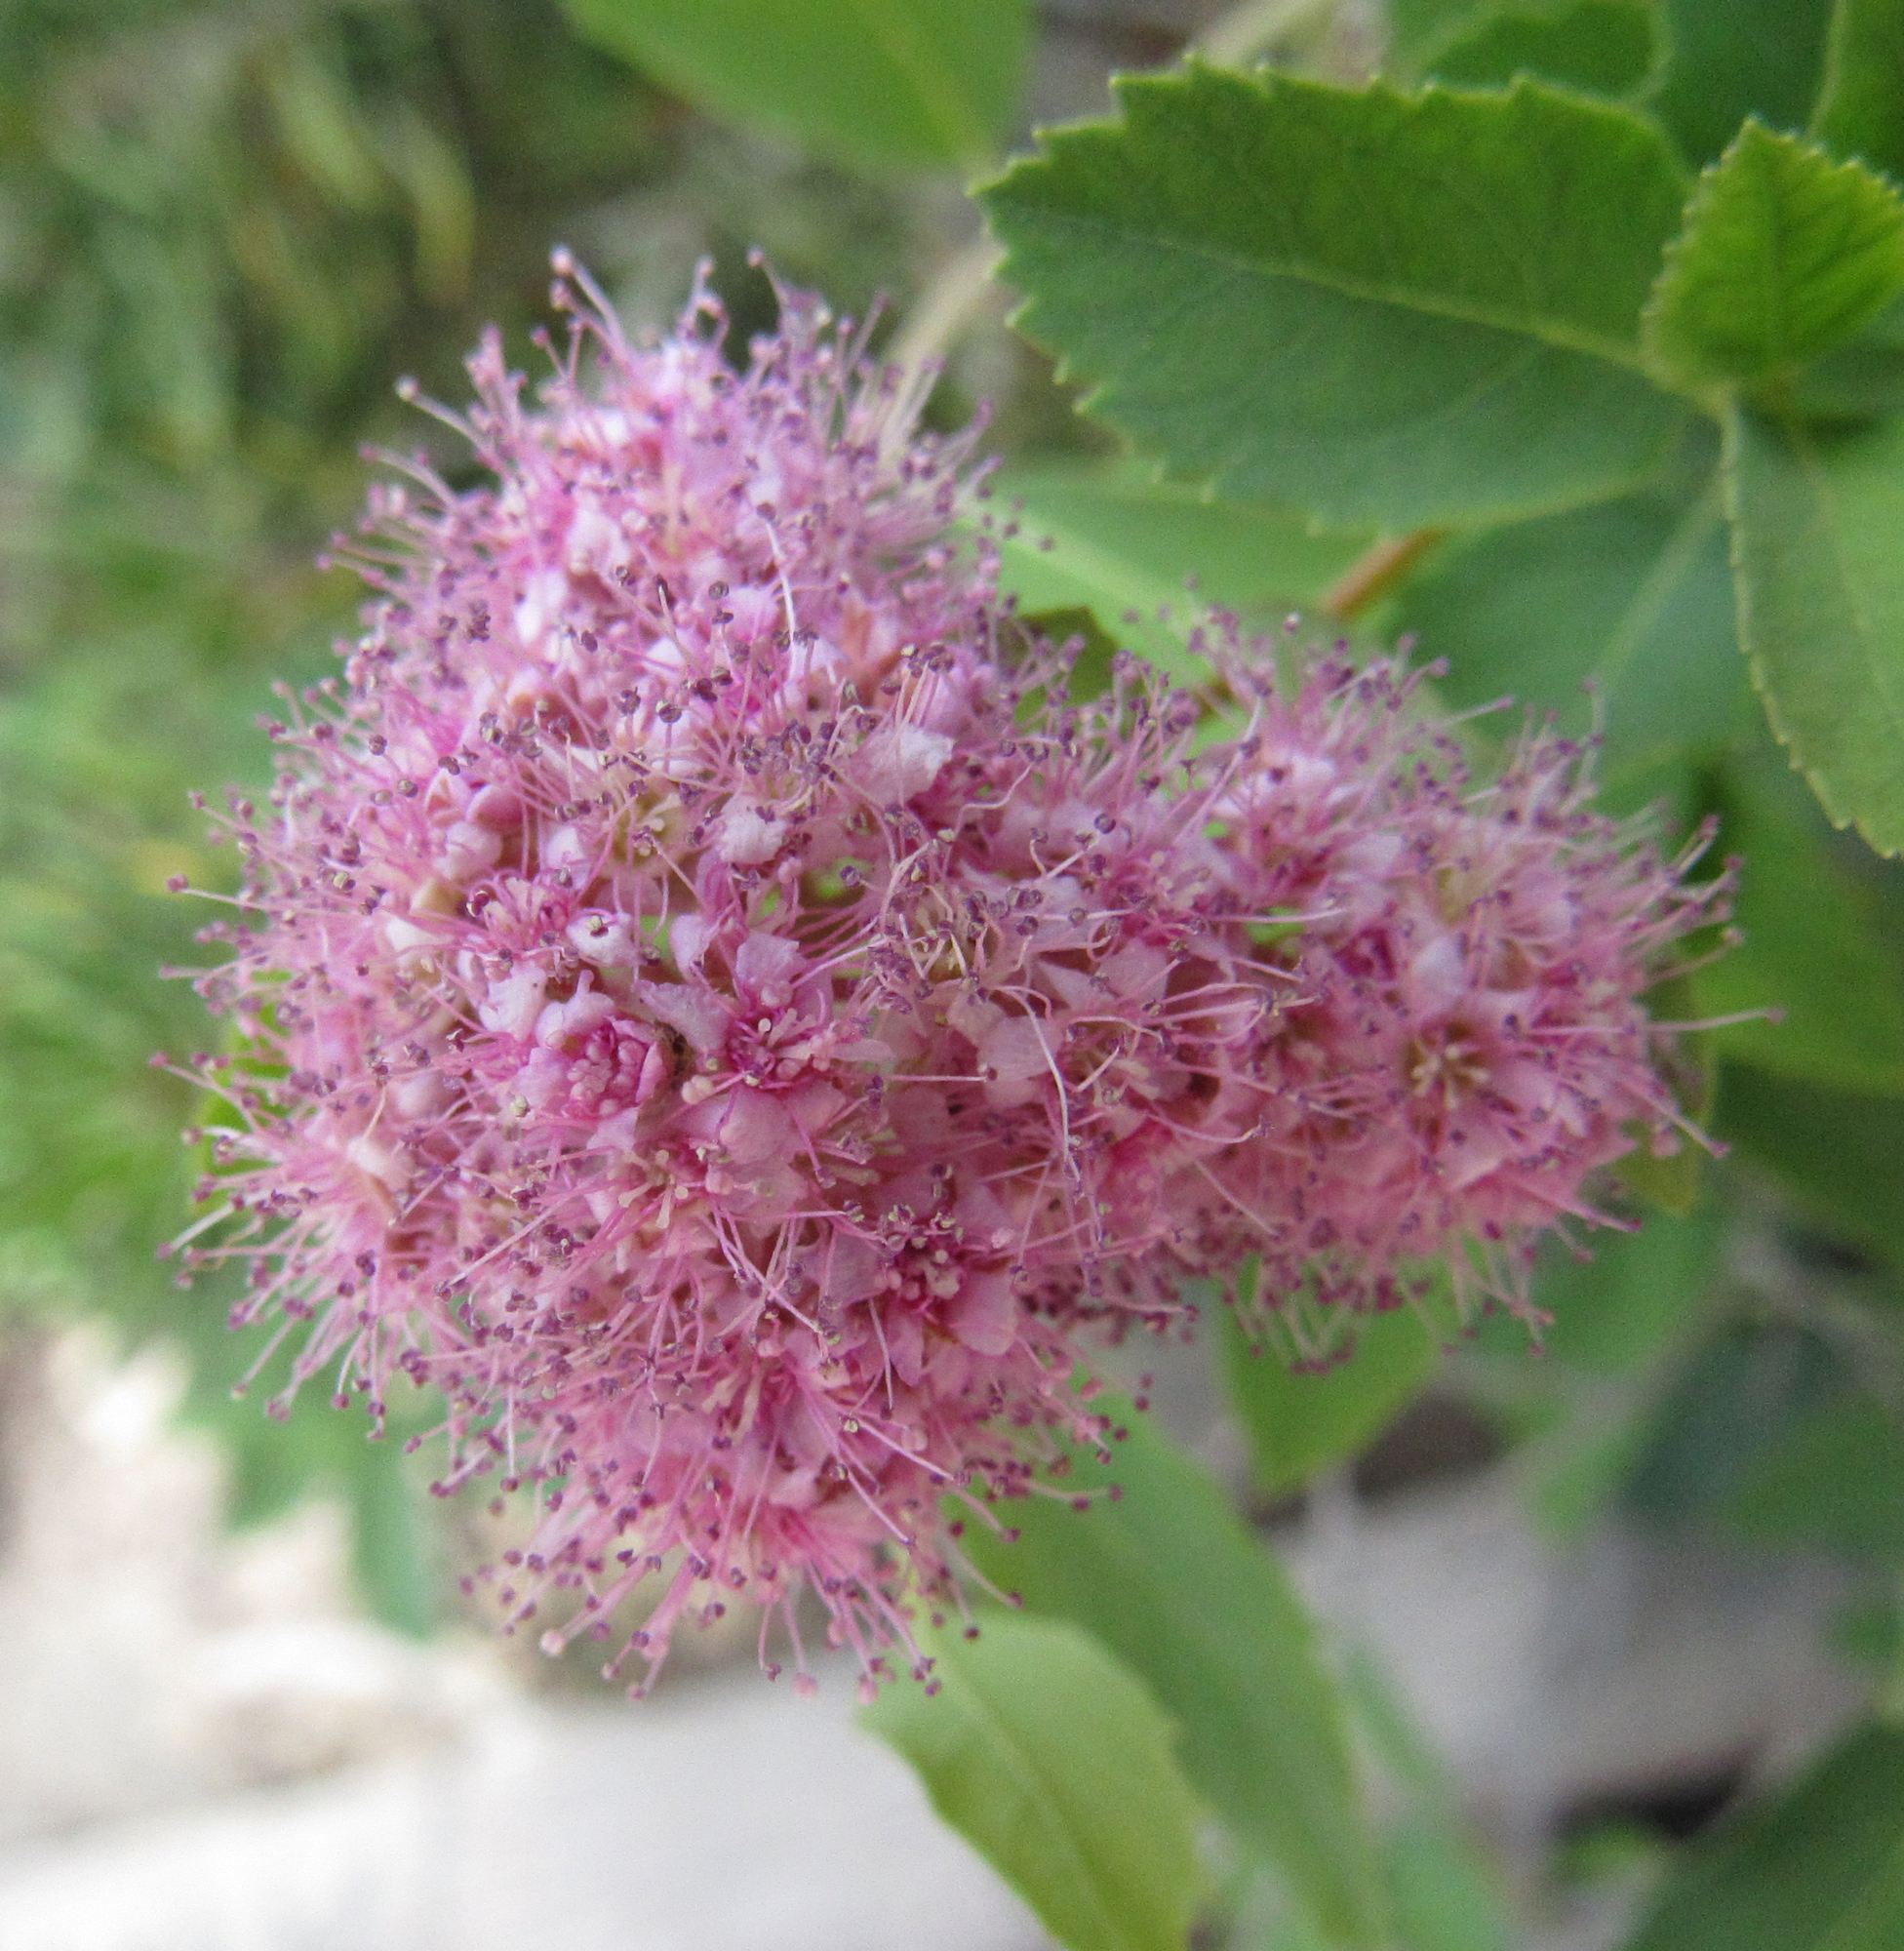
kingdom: Plantae
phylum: Tracheophyta
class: Magnoliopsida
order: Rosales
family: Rosaceae
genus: Spiraea
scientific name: Spiraea douglasii
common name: Steeplebush
